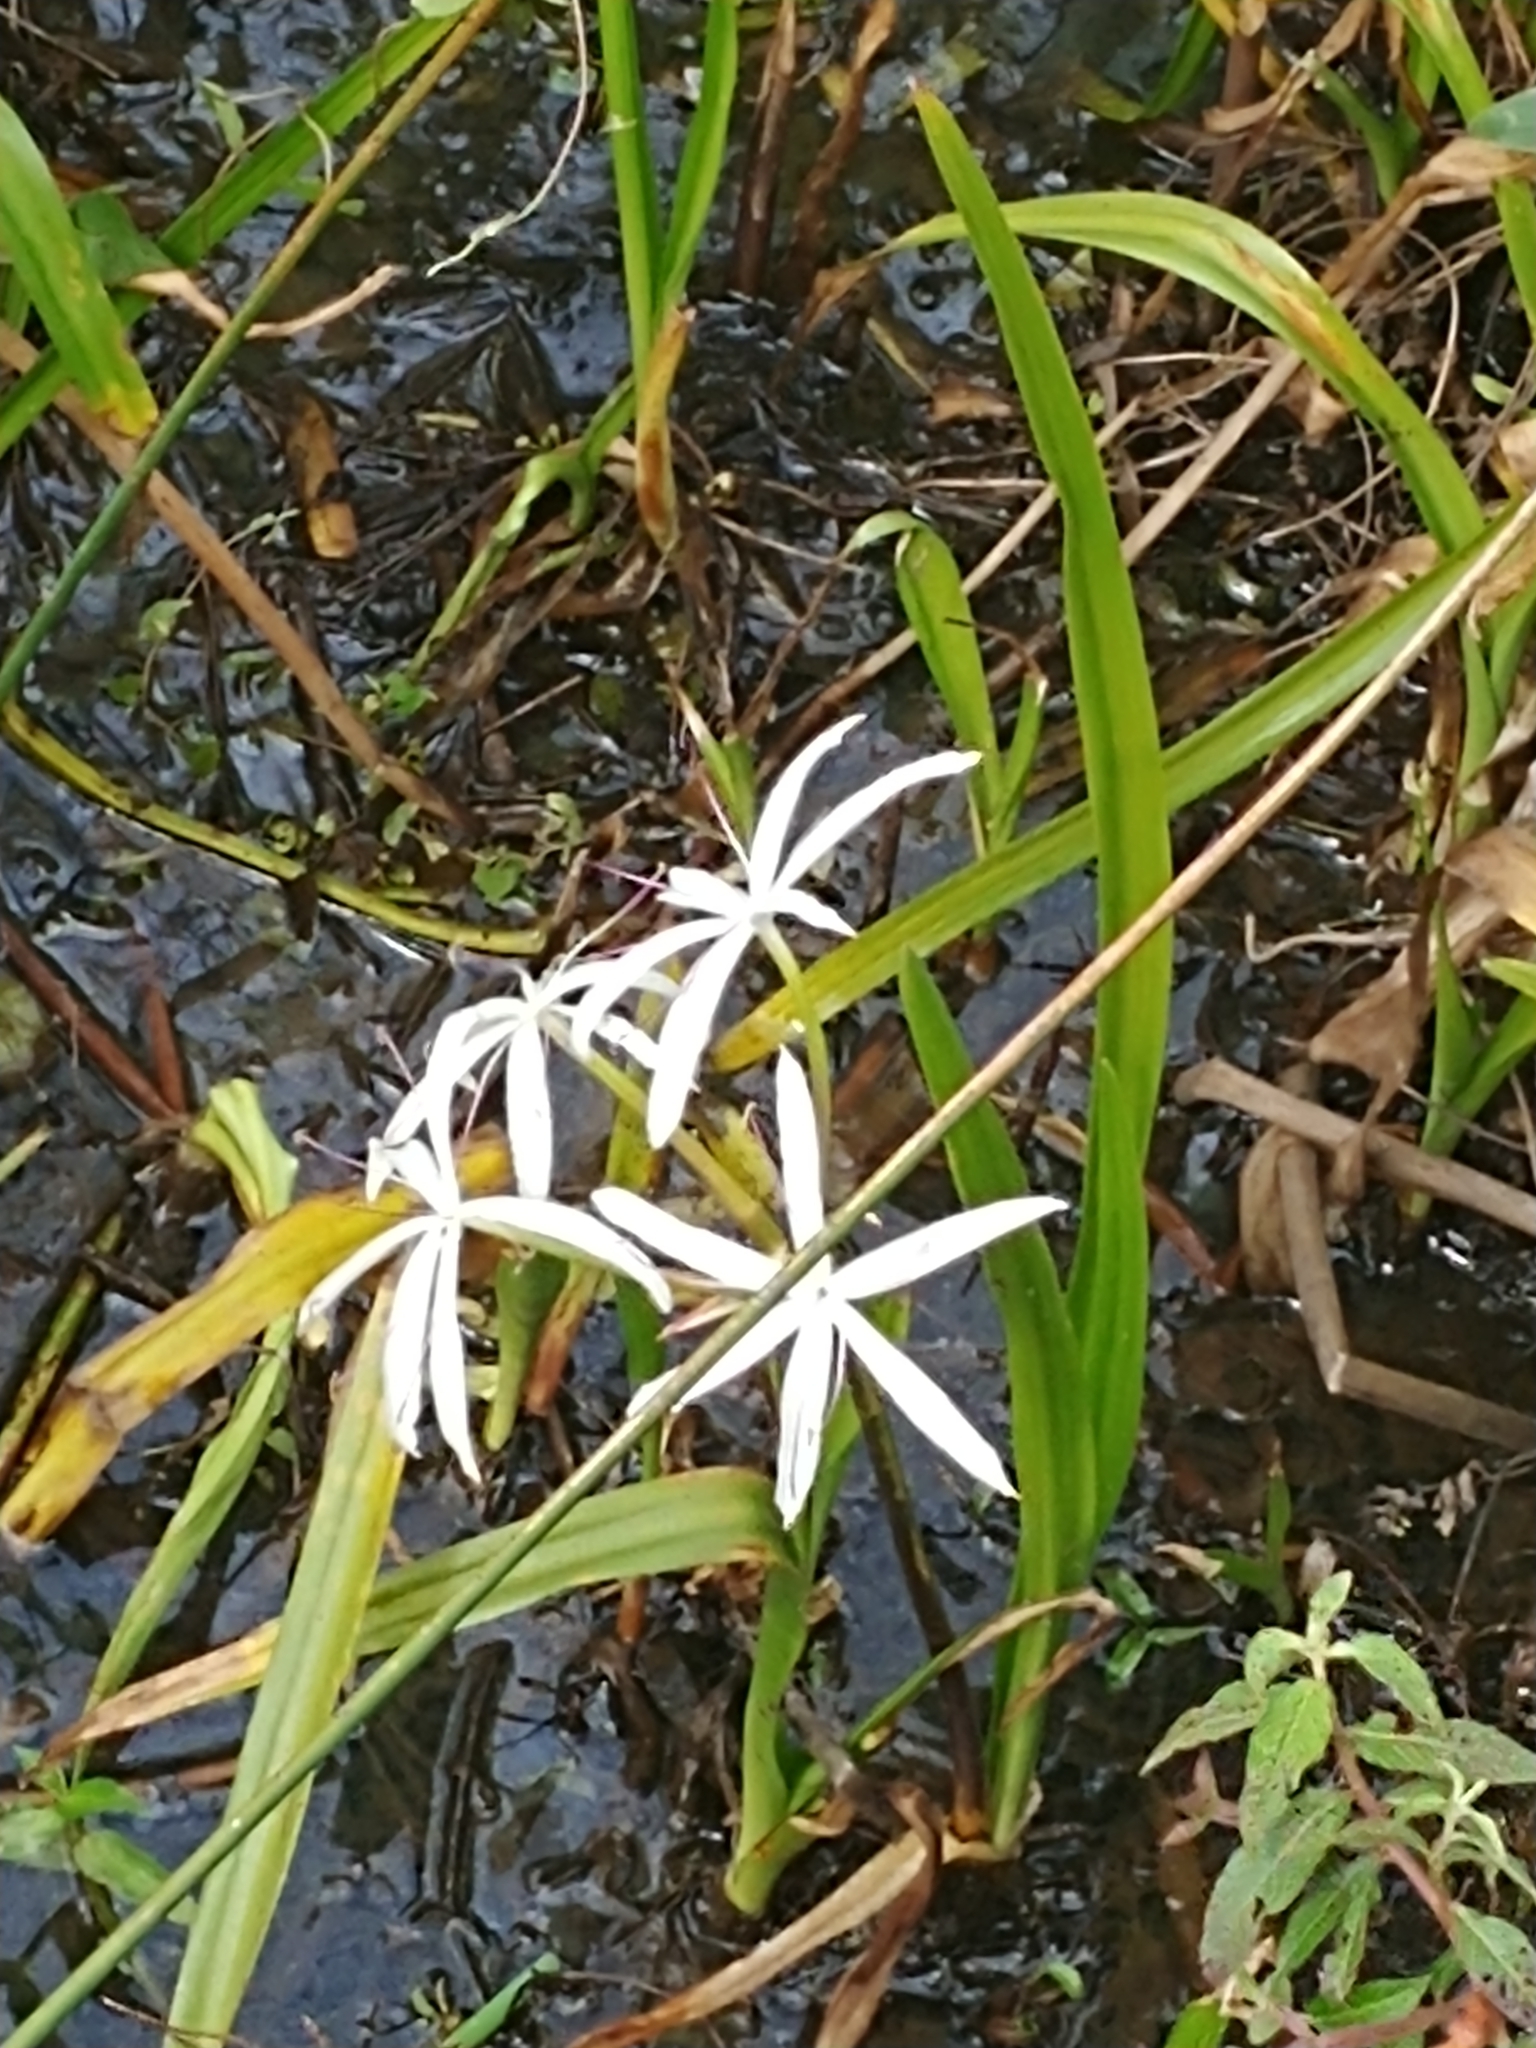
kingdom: Plantae
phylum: Tracheophyta
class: Liliopsida
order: Asparagales
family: Amaryllidaceae
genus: Crinum
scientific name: Crinum americanum
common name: Florida swamp-lily
